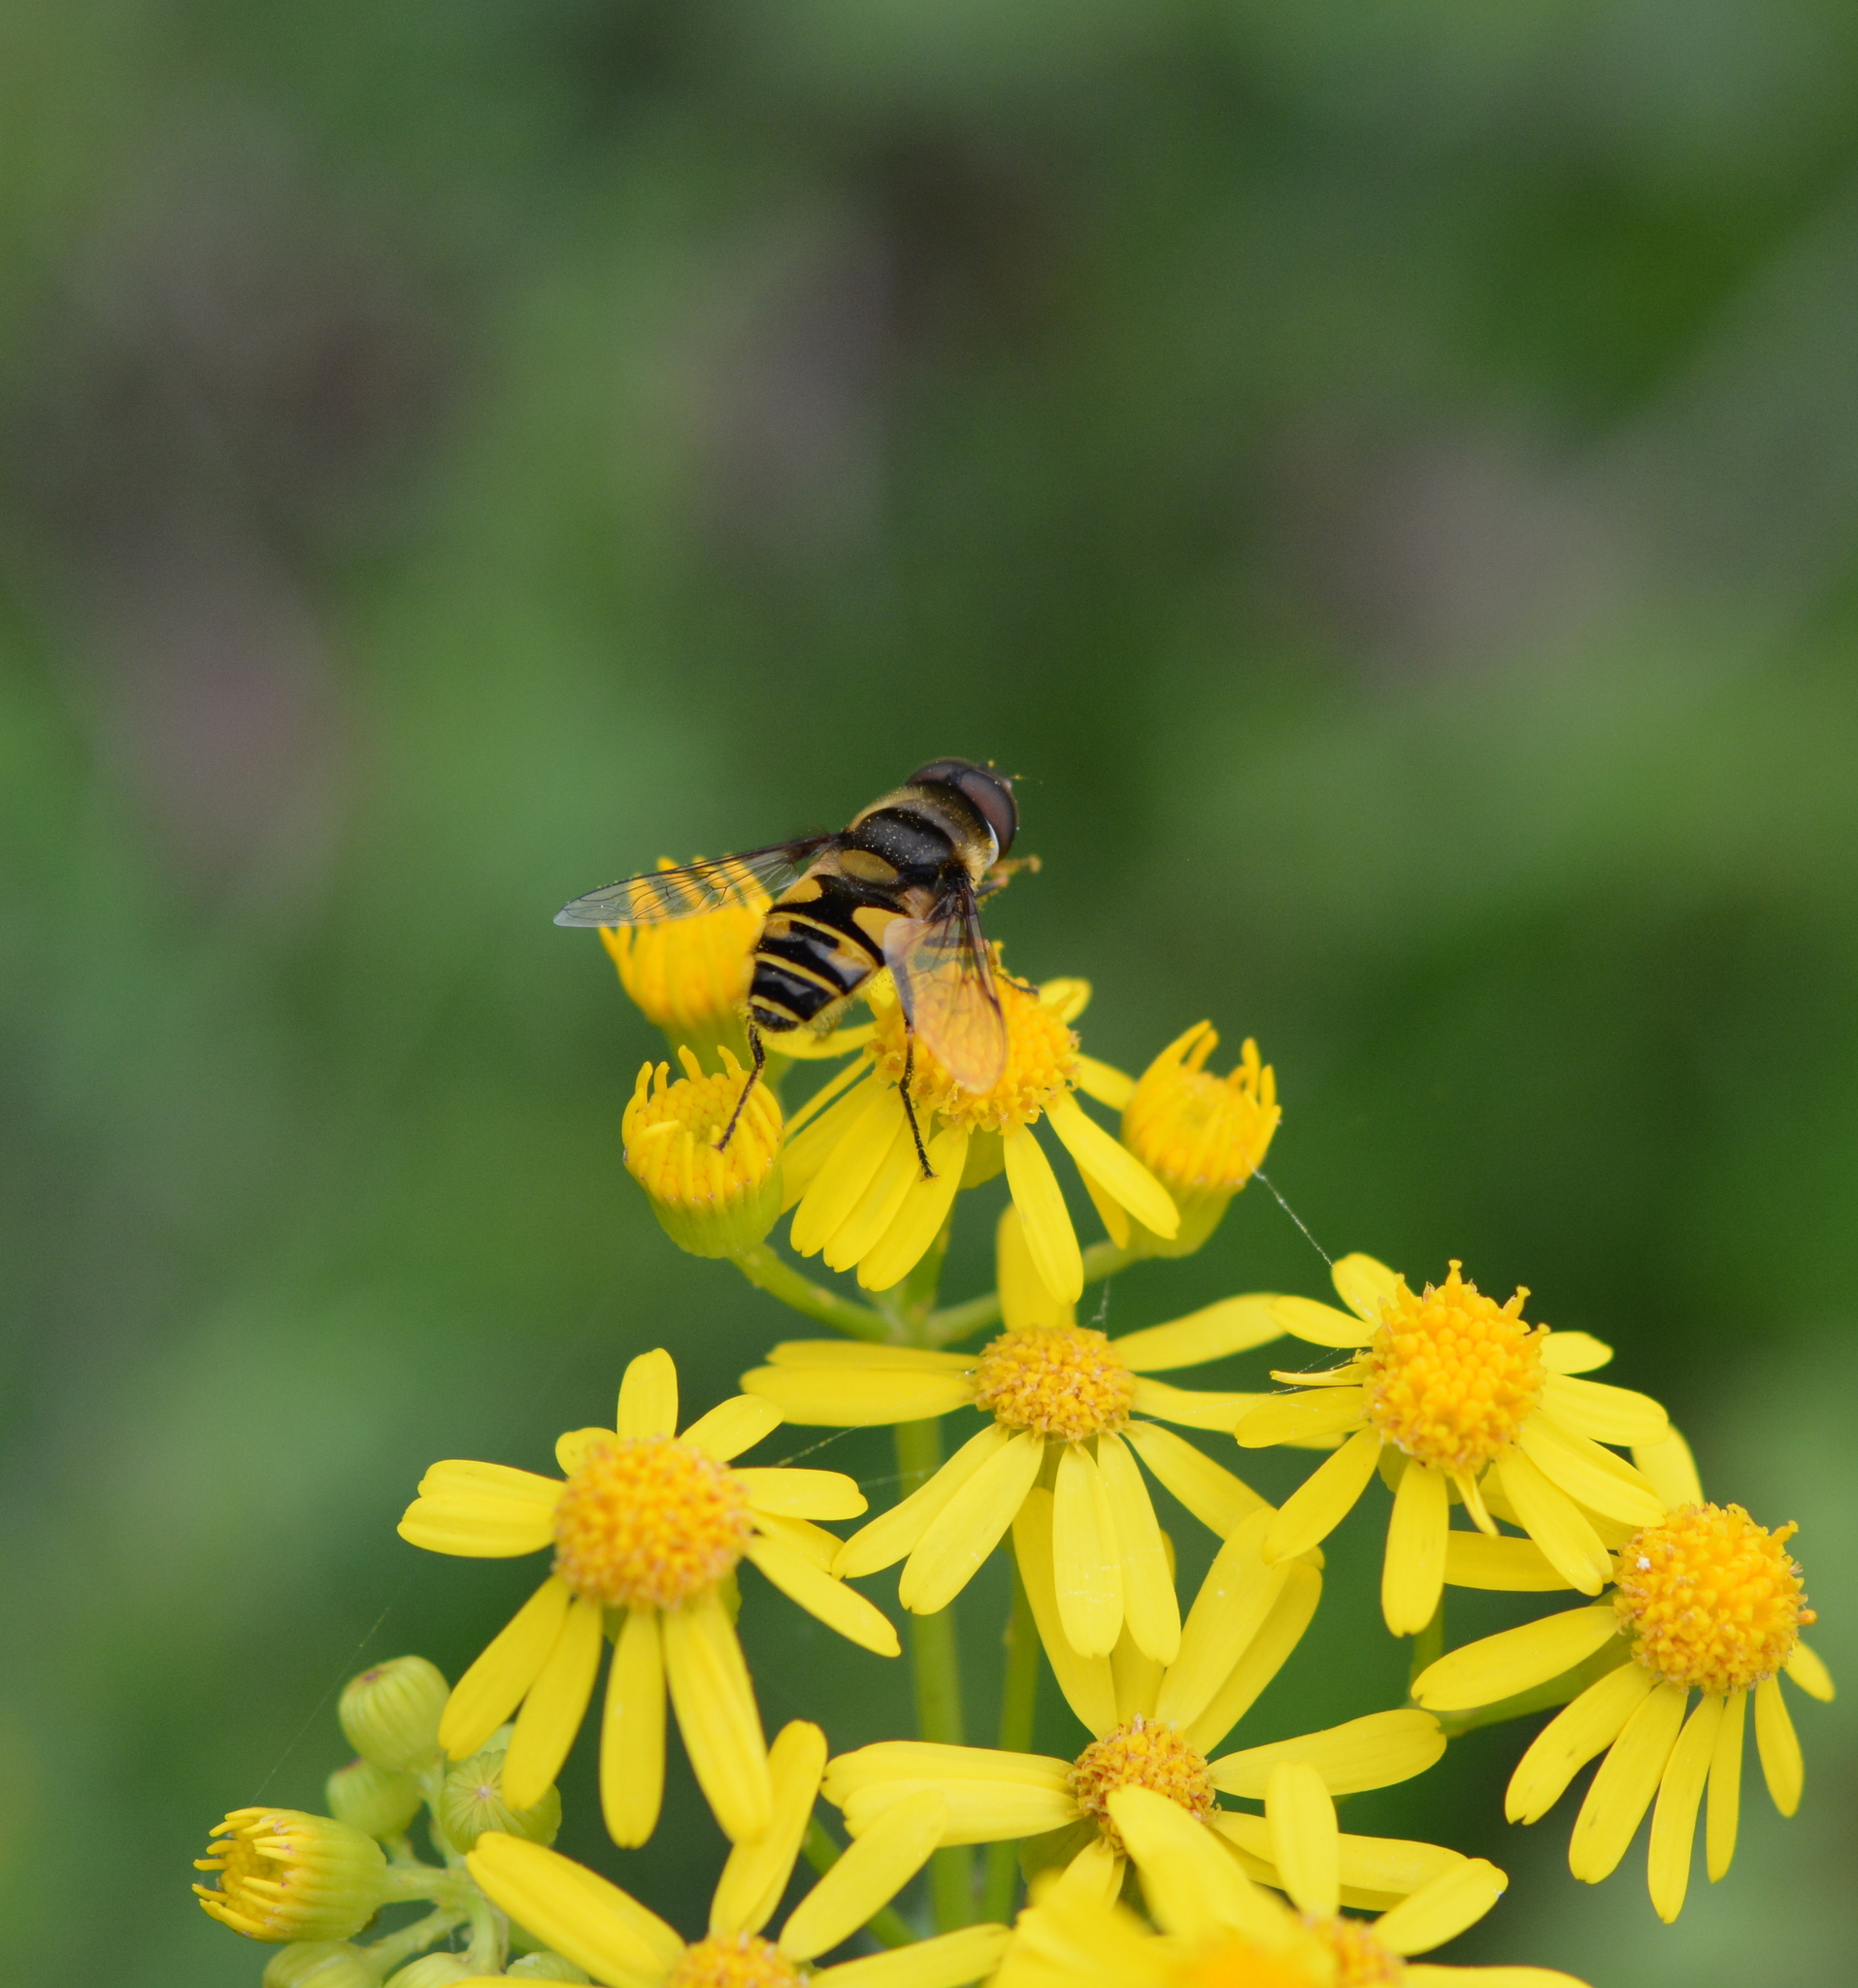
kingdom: Animalia
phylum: Arthropoda
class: Insecta
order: Diptera
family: Syrphidae
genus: Eristalis
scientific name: Eristalis transversa
